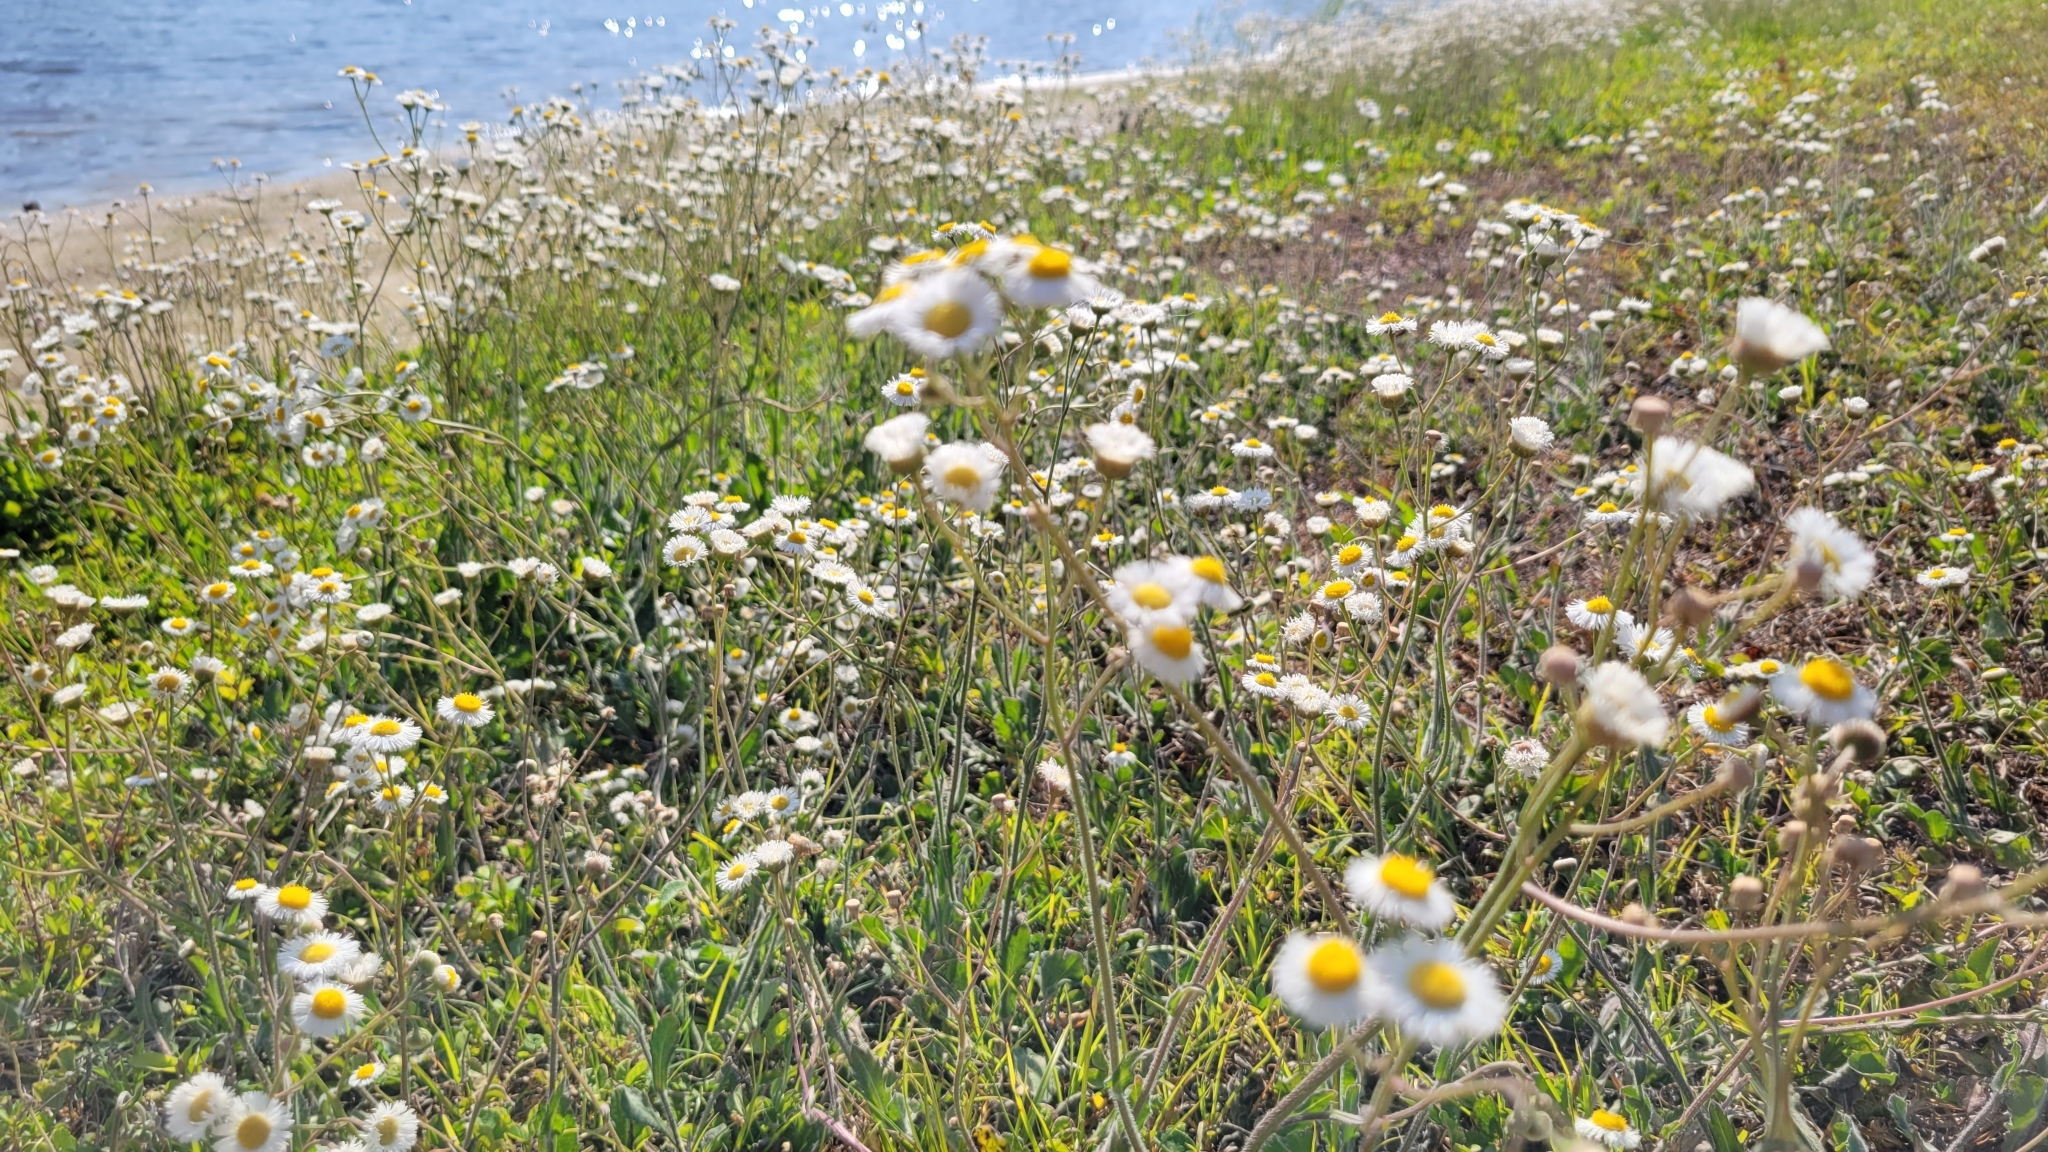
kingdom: Plantae
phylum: Tracheophyta
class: Magnoliopsida
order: Asterales
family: Asteraceae
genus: Erigeron
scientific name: Erigeron quercifolius
